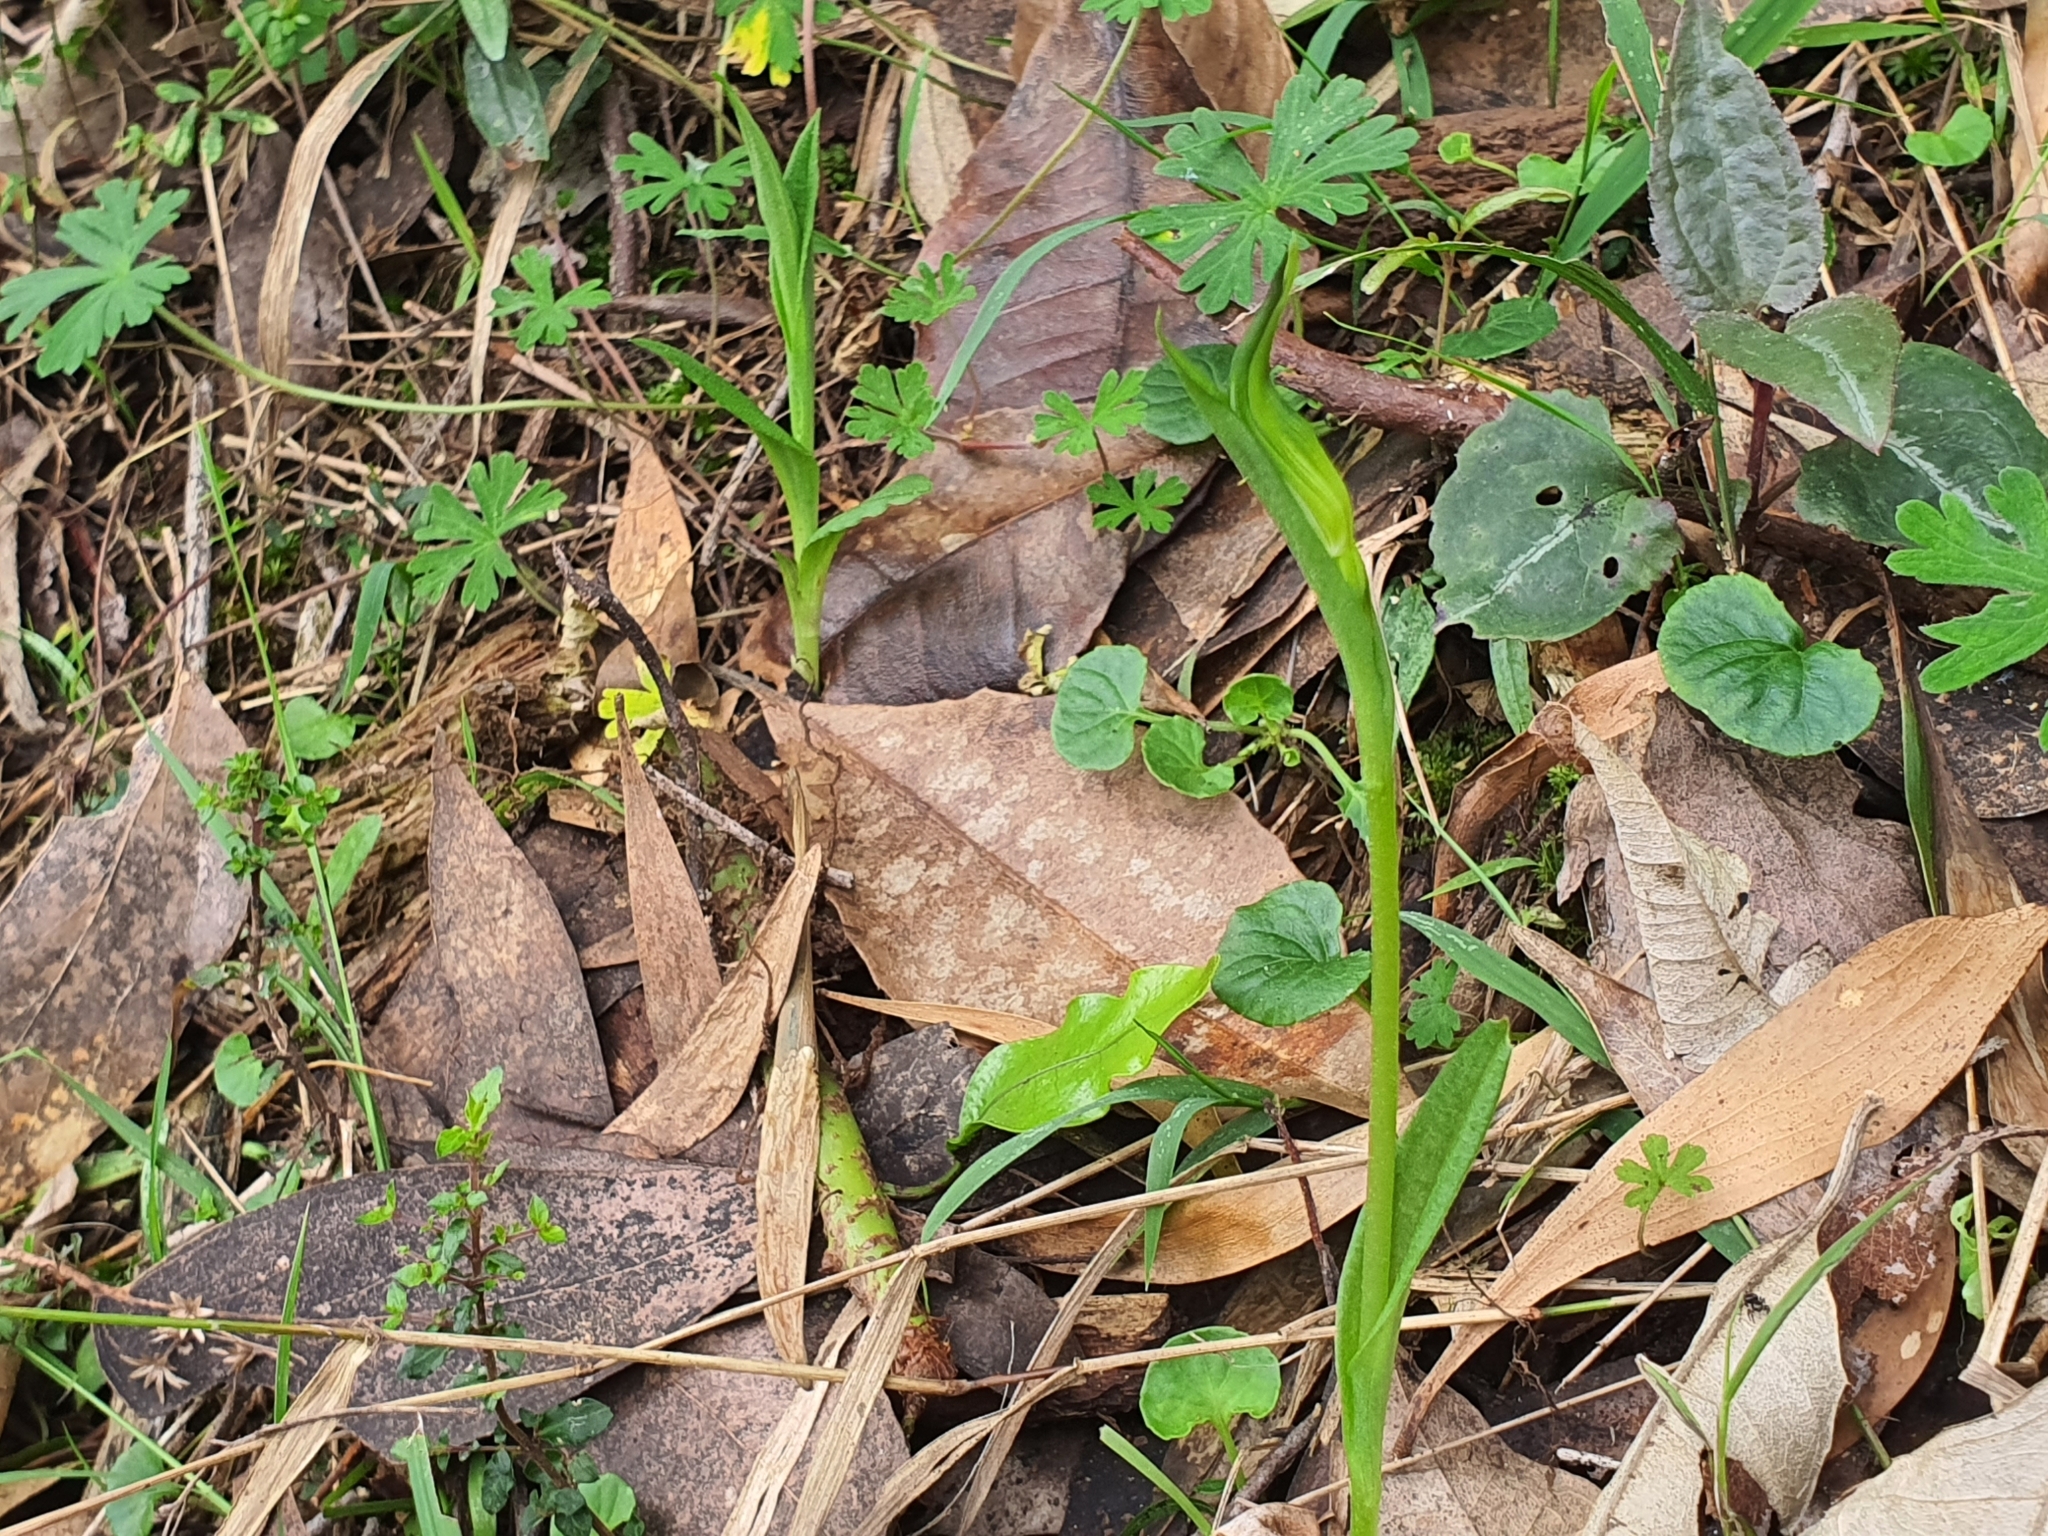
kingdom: Plantae
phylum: Tracheophyta
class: Liliopsida
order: Asparagales
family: Orchidaceae
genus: Pterostylis
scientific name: Pterostylis alpina
